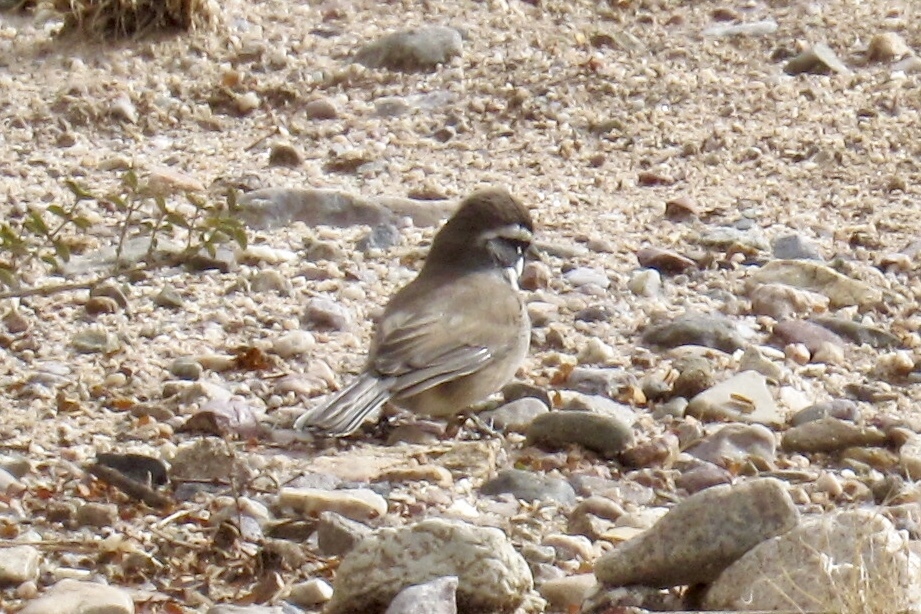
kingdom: Animalia
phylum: Chordata
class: Aves
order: Passeriformes
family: Passerellidae
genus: Amphispiza
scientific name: Amphispiza bilineata
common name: Black-throated sparrow
